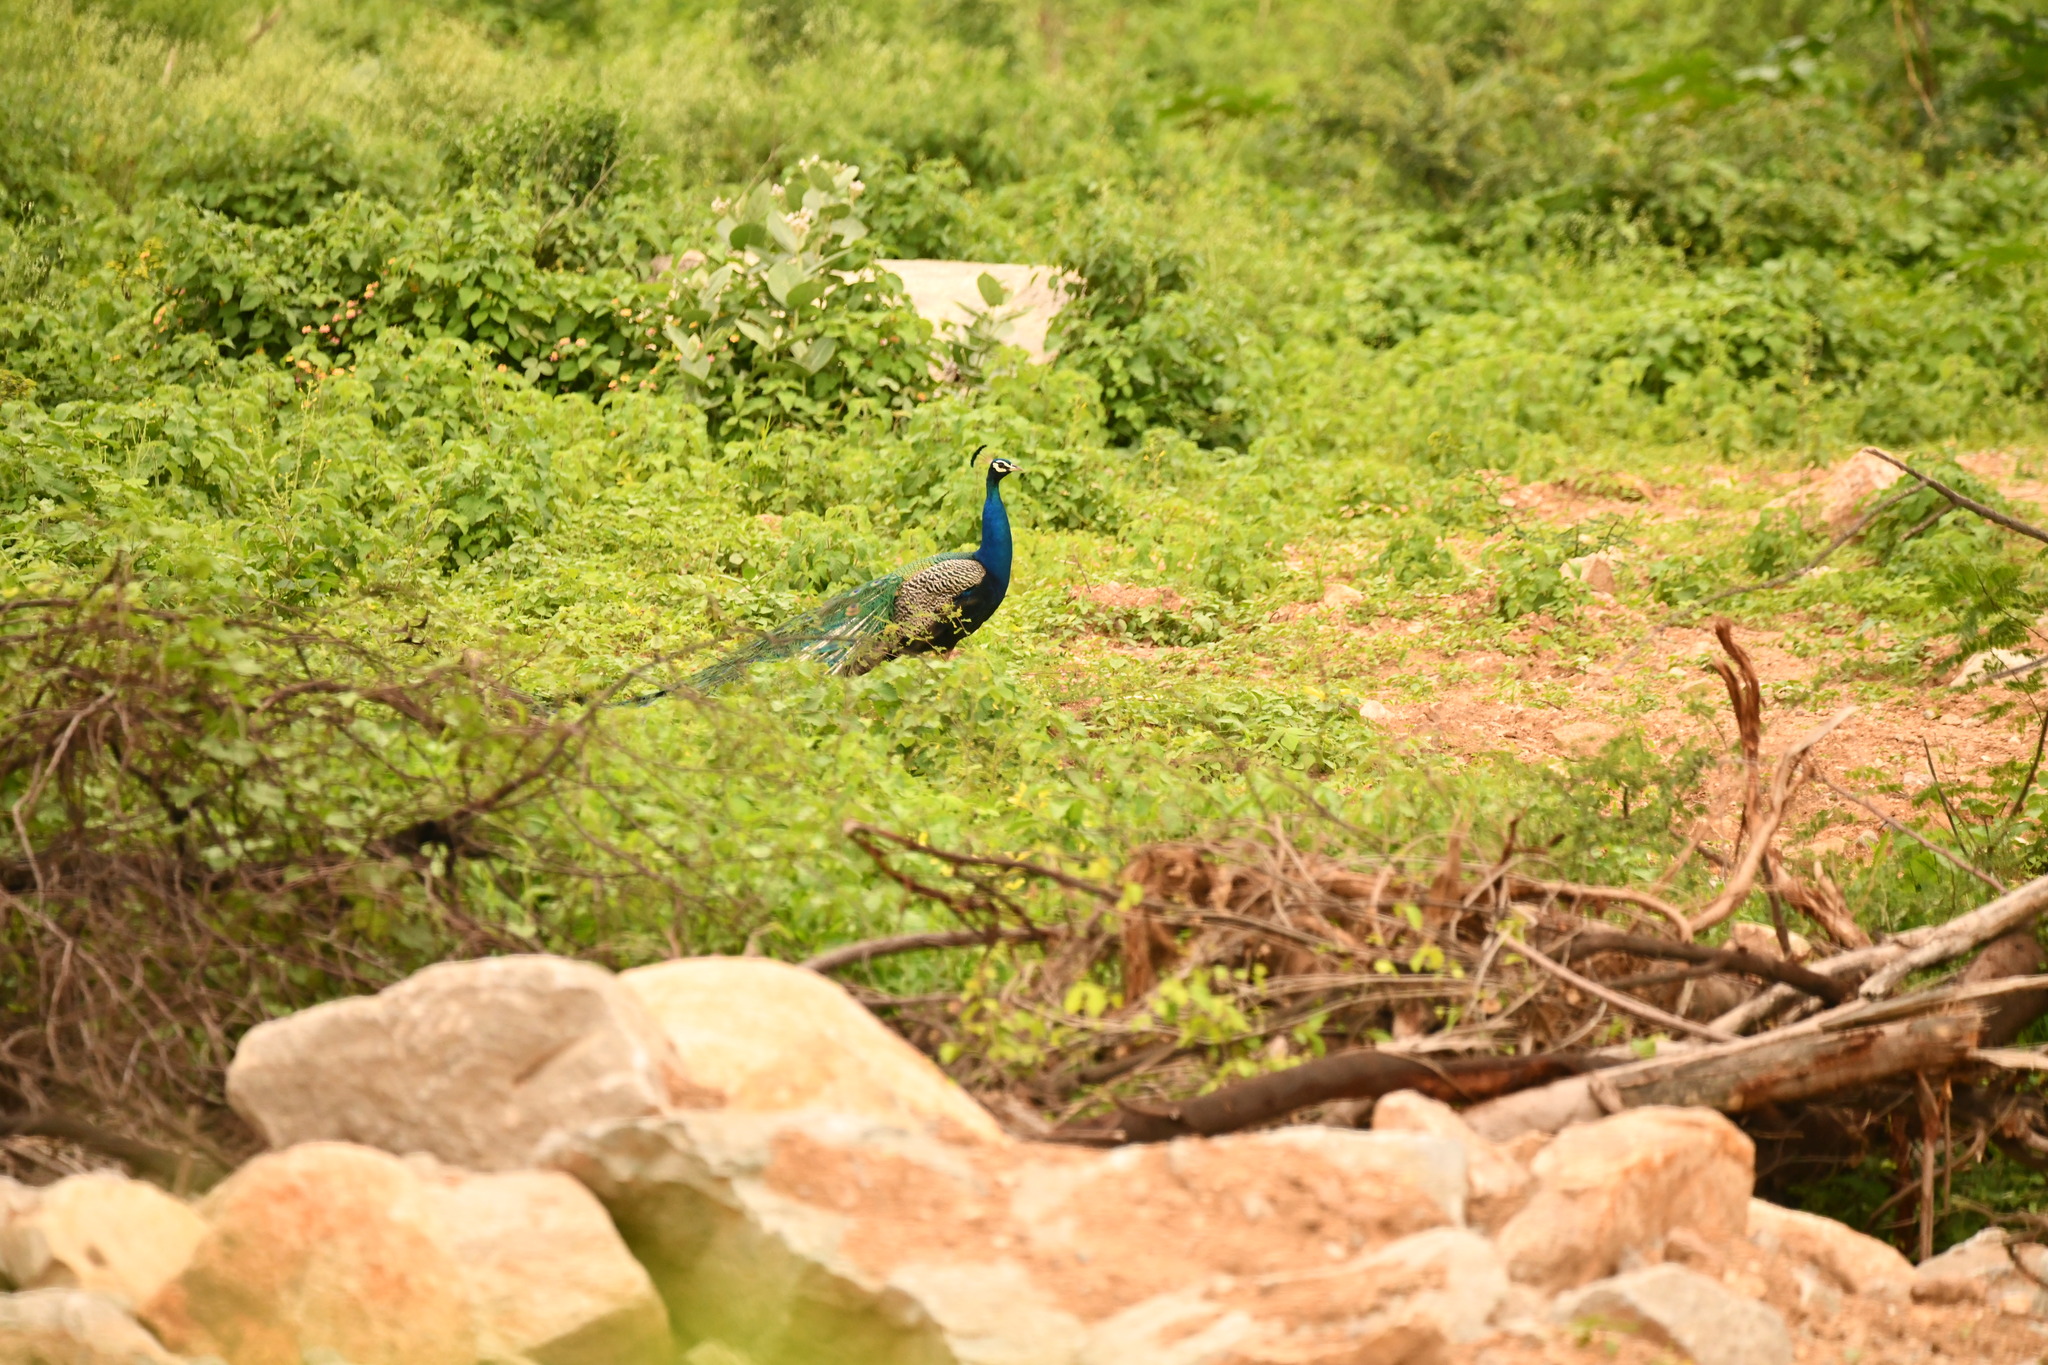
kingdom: Animalia
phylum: Chordata
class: Aves
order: Galliformes
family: Phasianidae
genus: Pavo
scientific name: Pavo cristatus
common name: Indian peafowl
